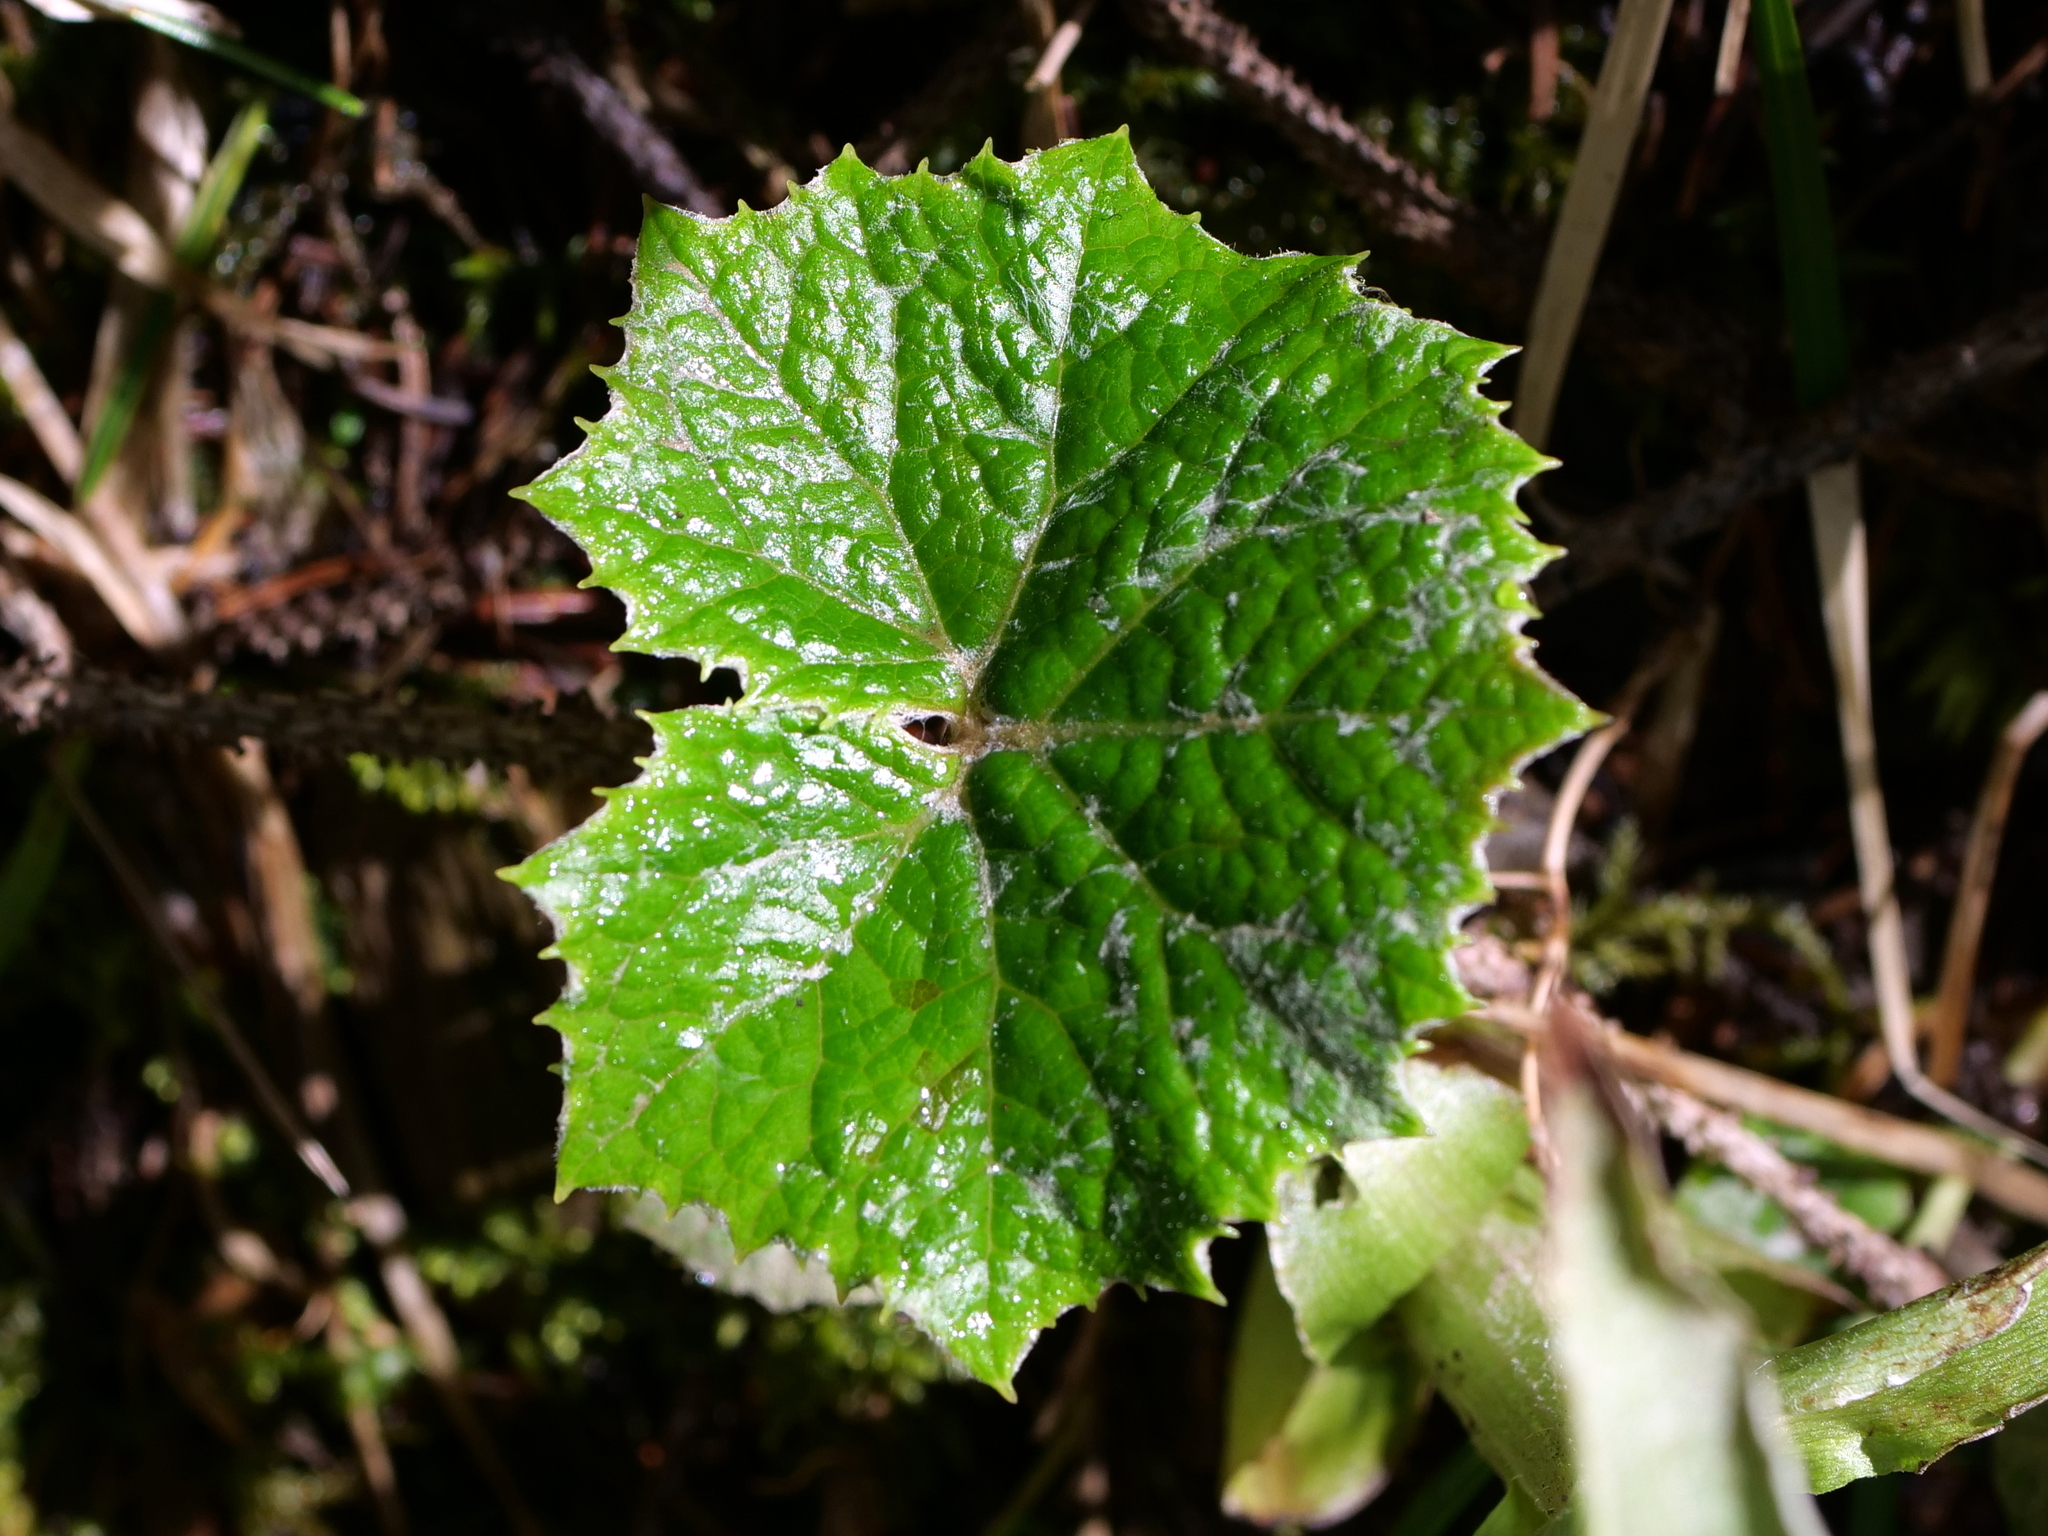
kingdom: Plantae
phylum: Tracheophyta
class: Magnoliopsida
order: Asterales
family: Asteraceae
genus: Petasites
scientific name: Petasites albus
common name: White butterbur
